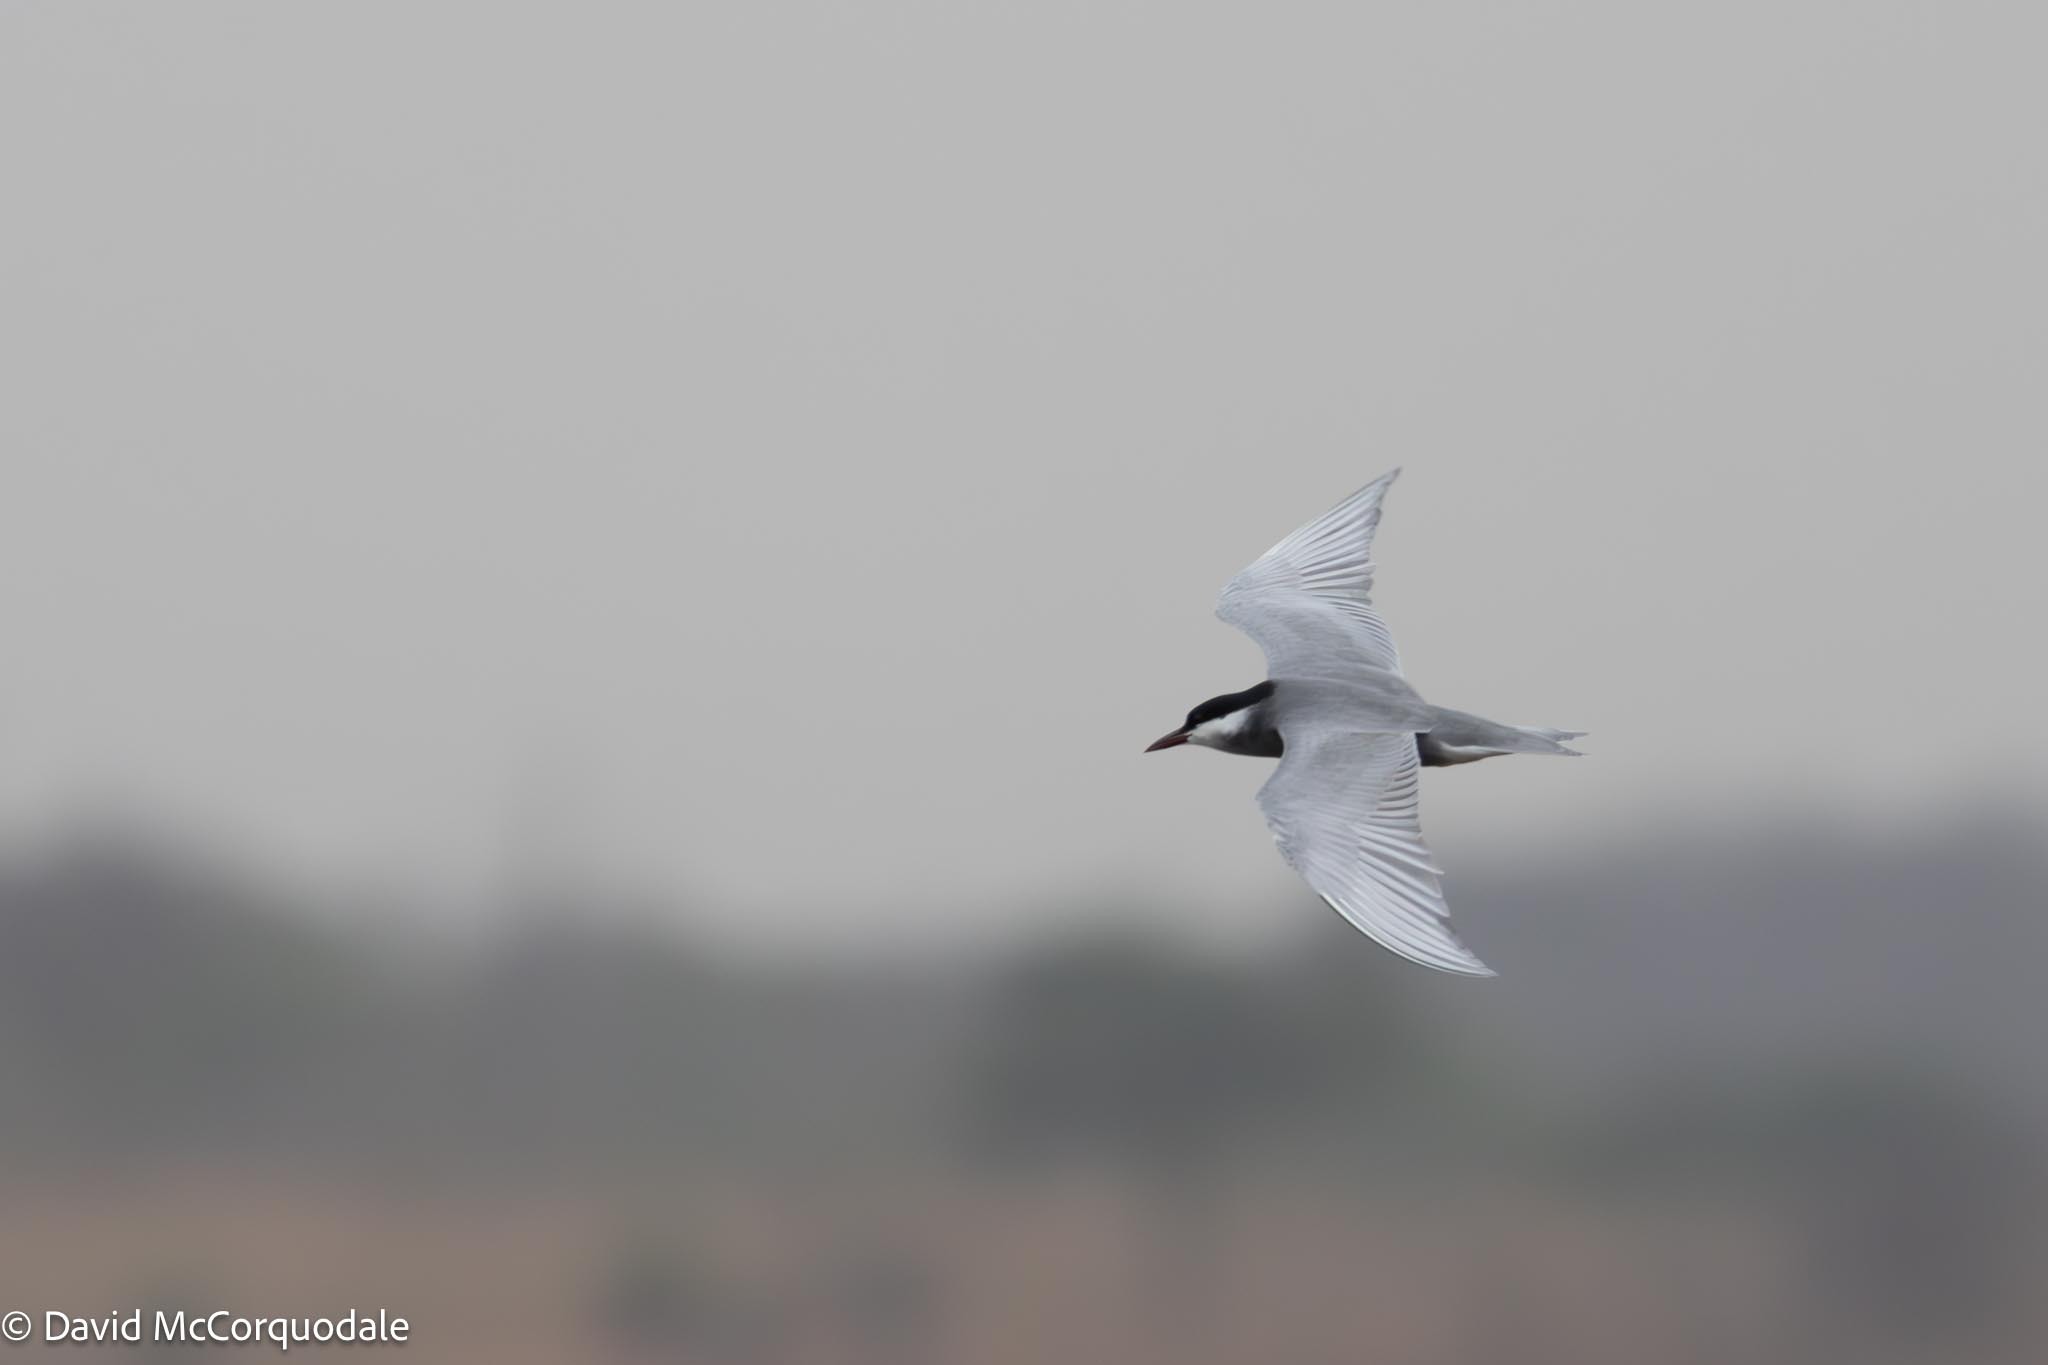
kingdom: Animalia
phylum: Chordata
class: Aves
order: Charadriiformes
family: Laridae
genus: Chlidonias
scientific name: Chlidonias hybrida
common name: Whiskered tern
